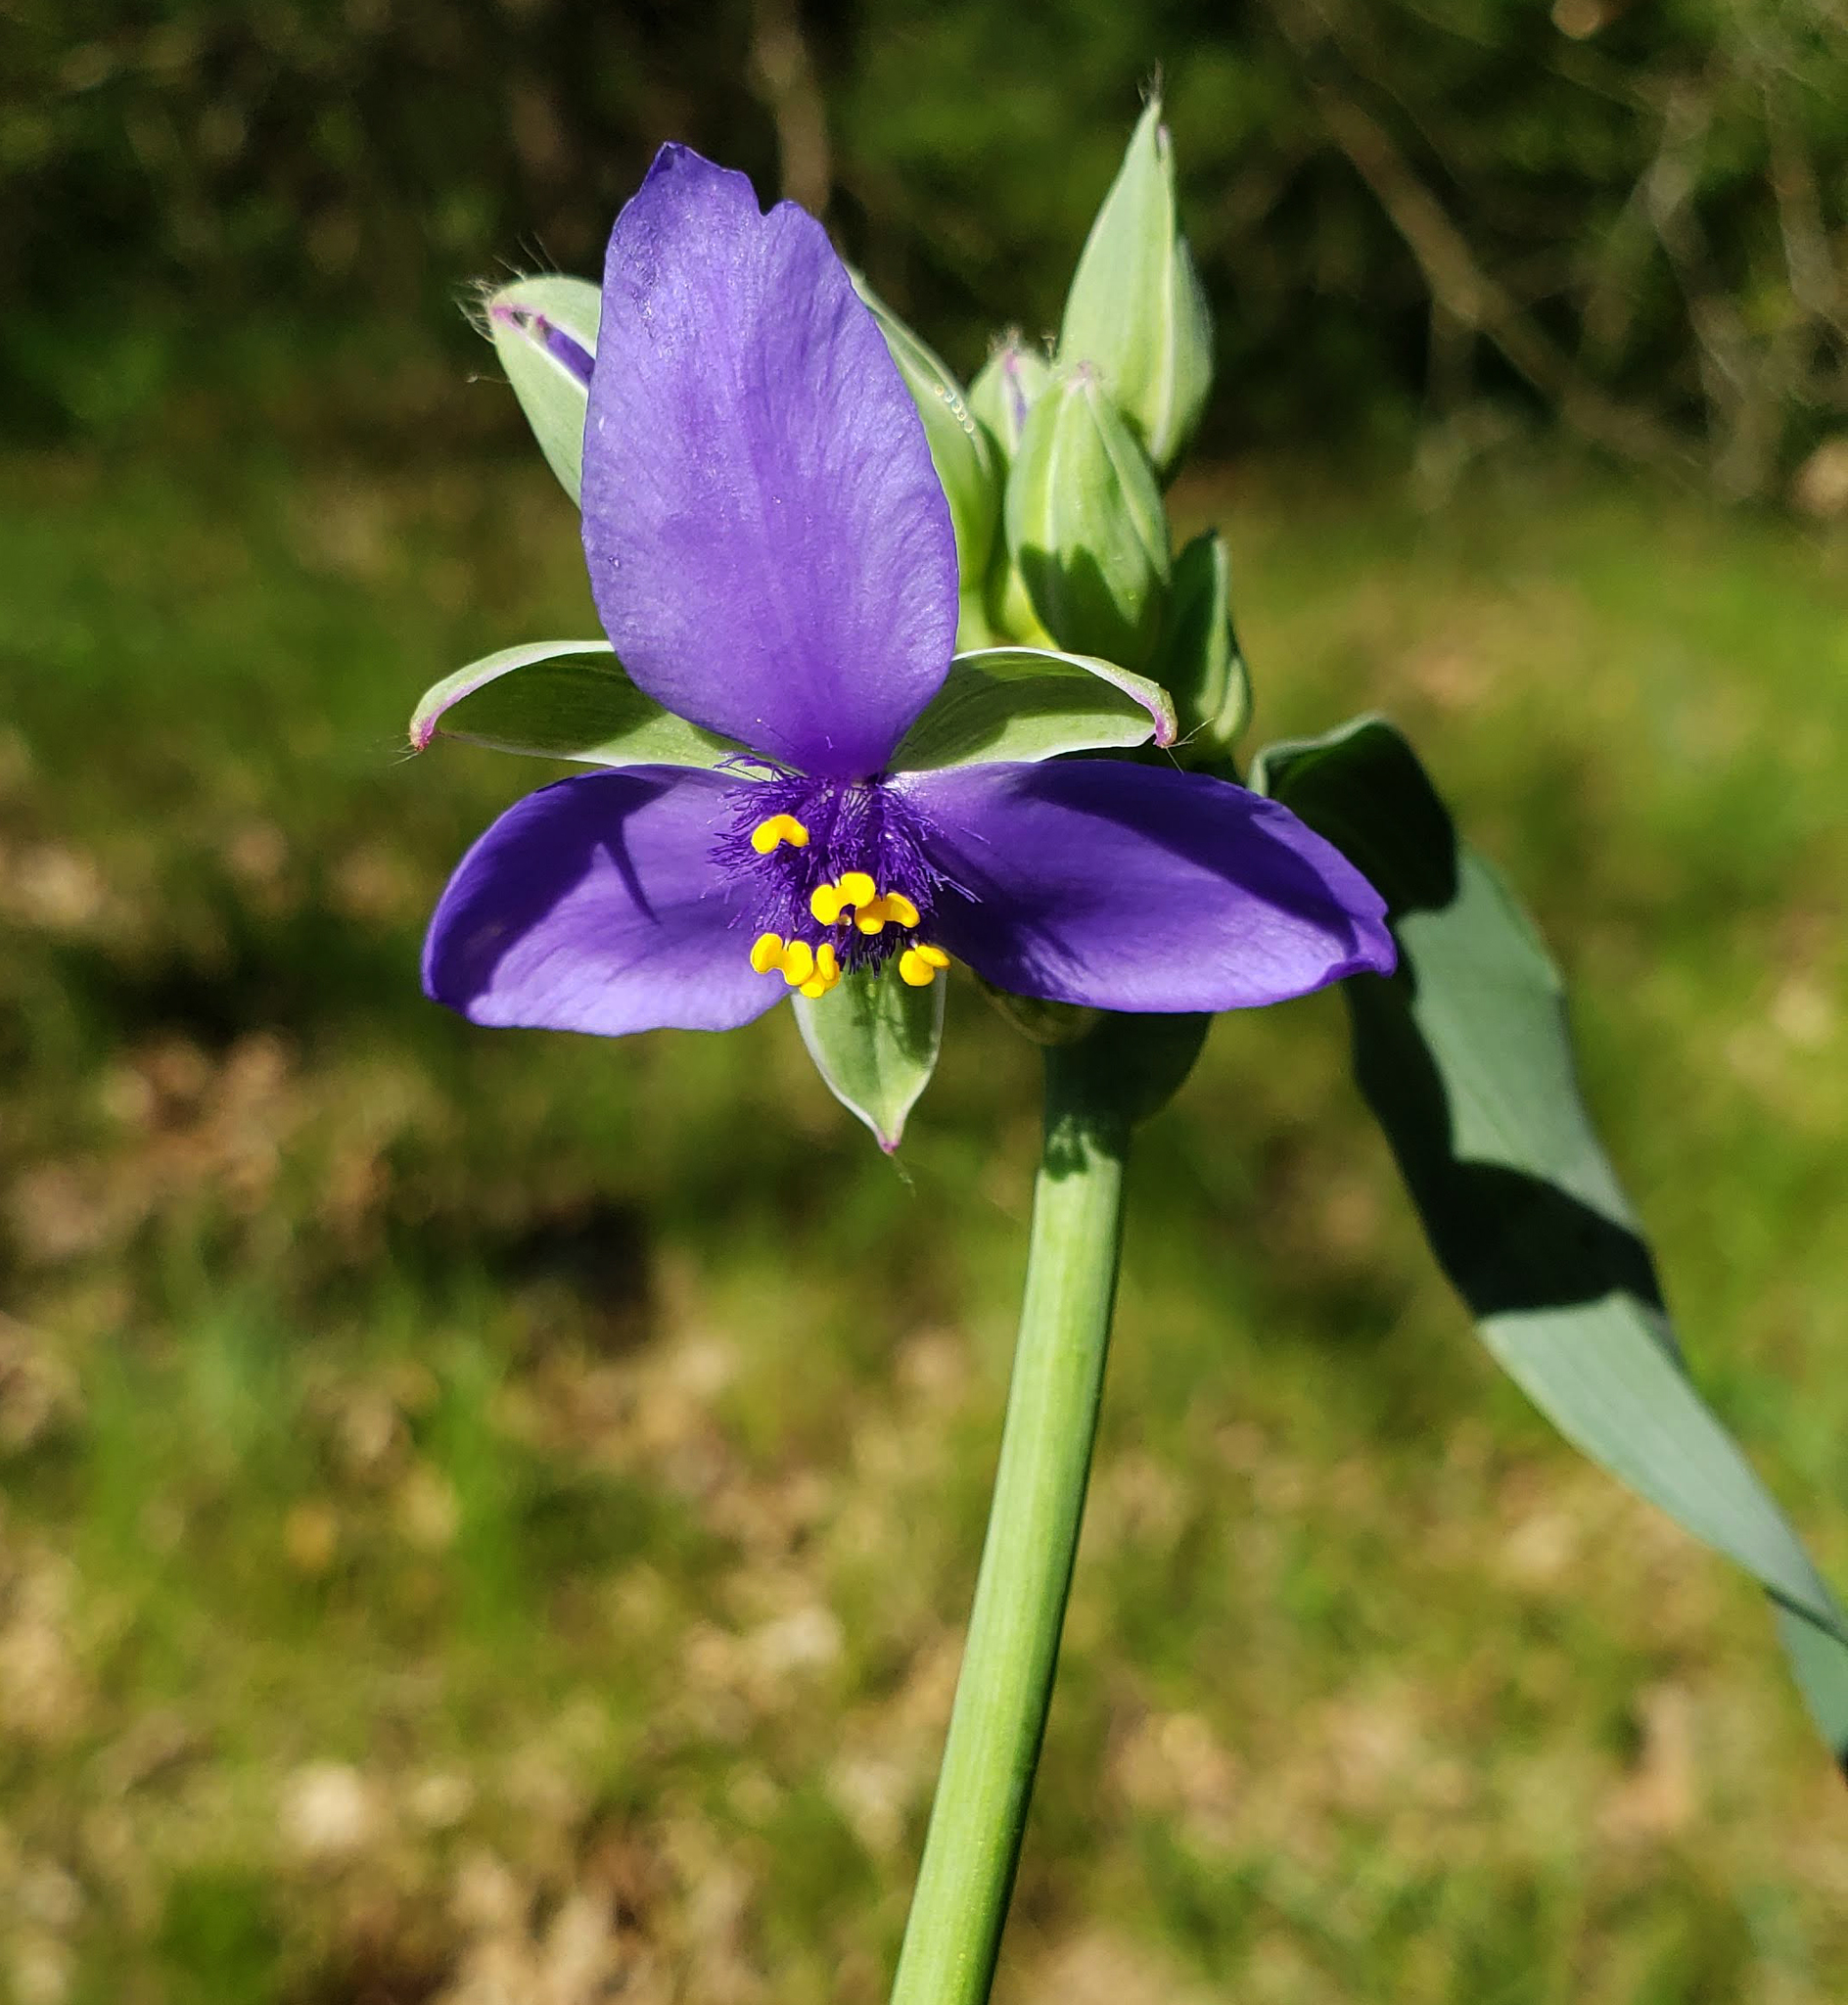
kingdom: Plantae
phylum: Tracheophyta
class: Liliopsida
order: Commelinales
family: Commelinaceae
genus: Tradescantia
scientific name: Tradescantia ohiensis
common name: Ohio spiderwort
